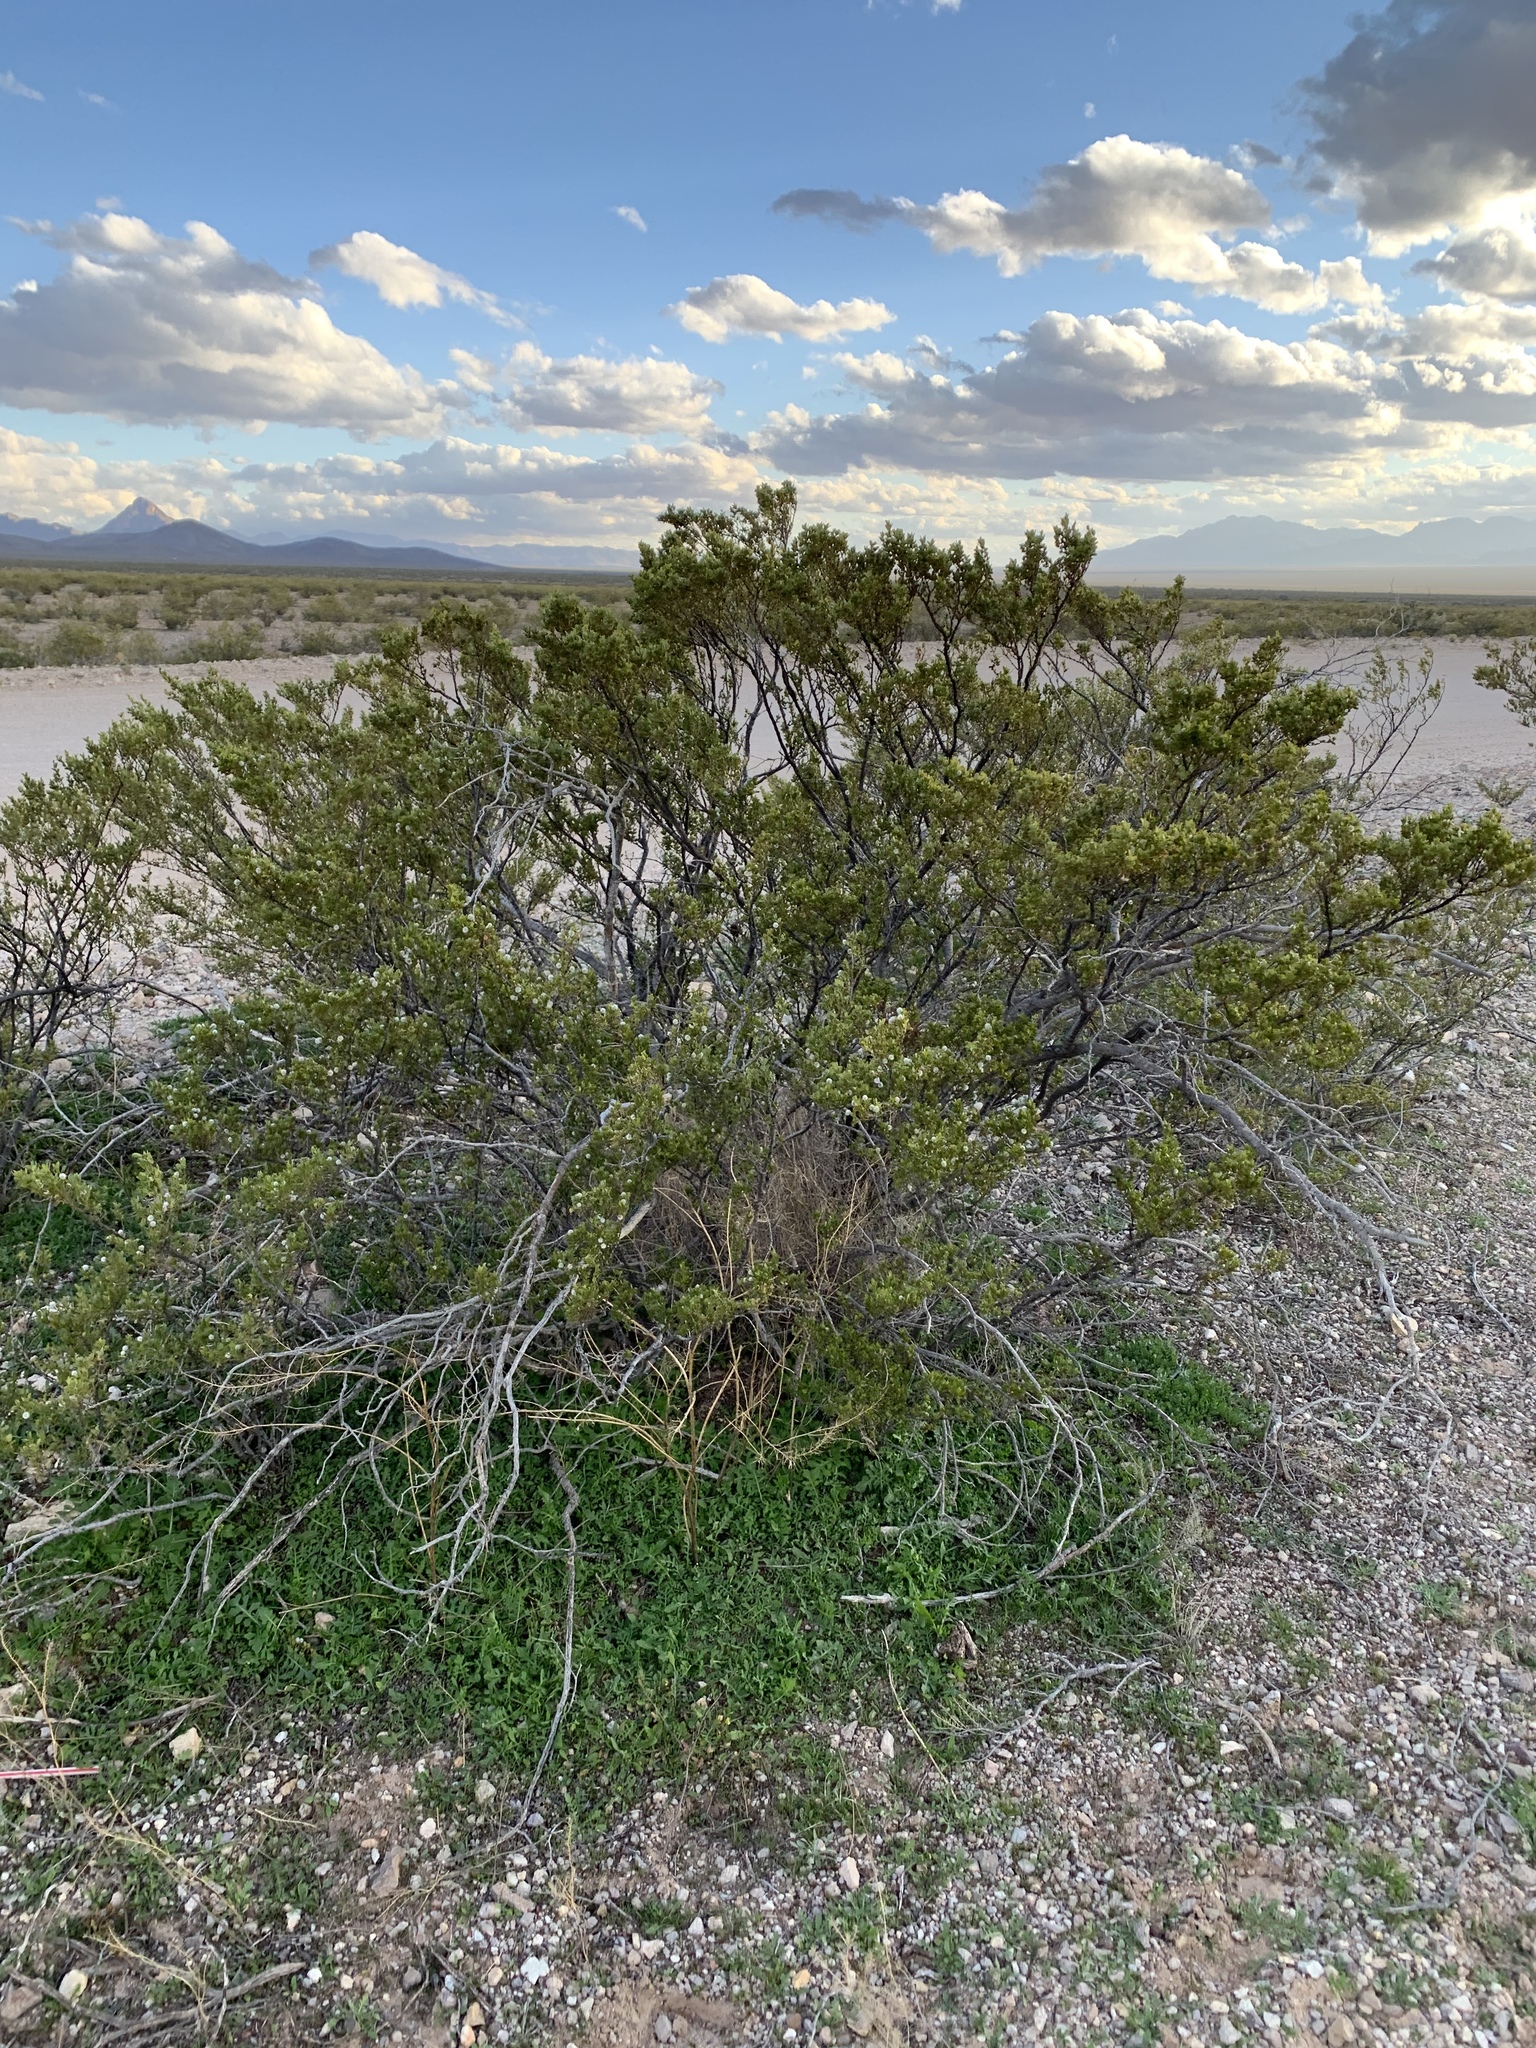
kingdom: Plantae
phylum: Tracheophyta
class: Magnoliopsida
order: Zygophyllales
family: Zygophyllaceae
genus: Larrea
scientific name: Larrea tridentata
